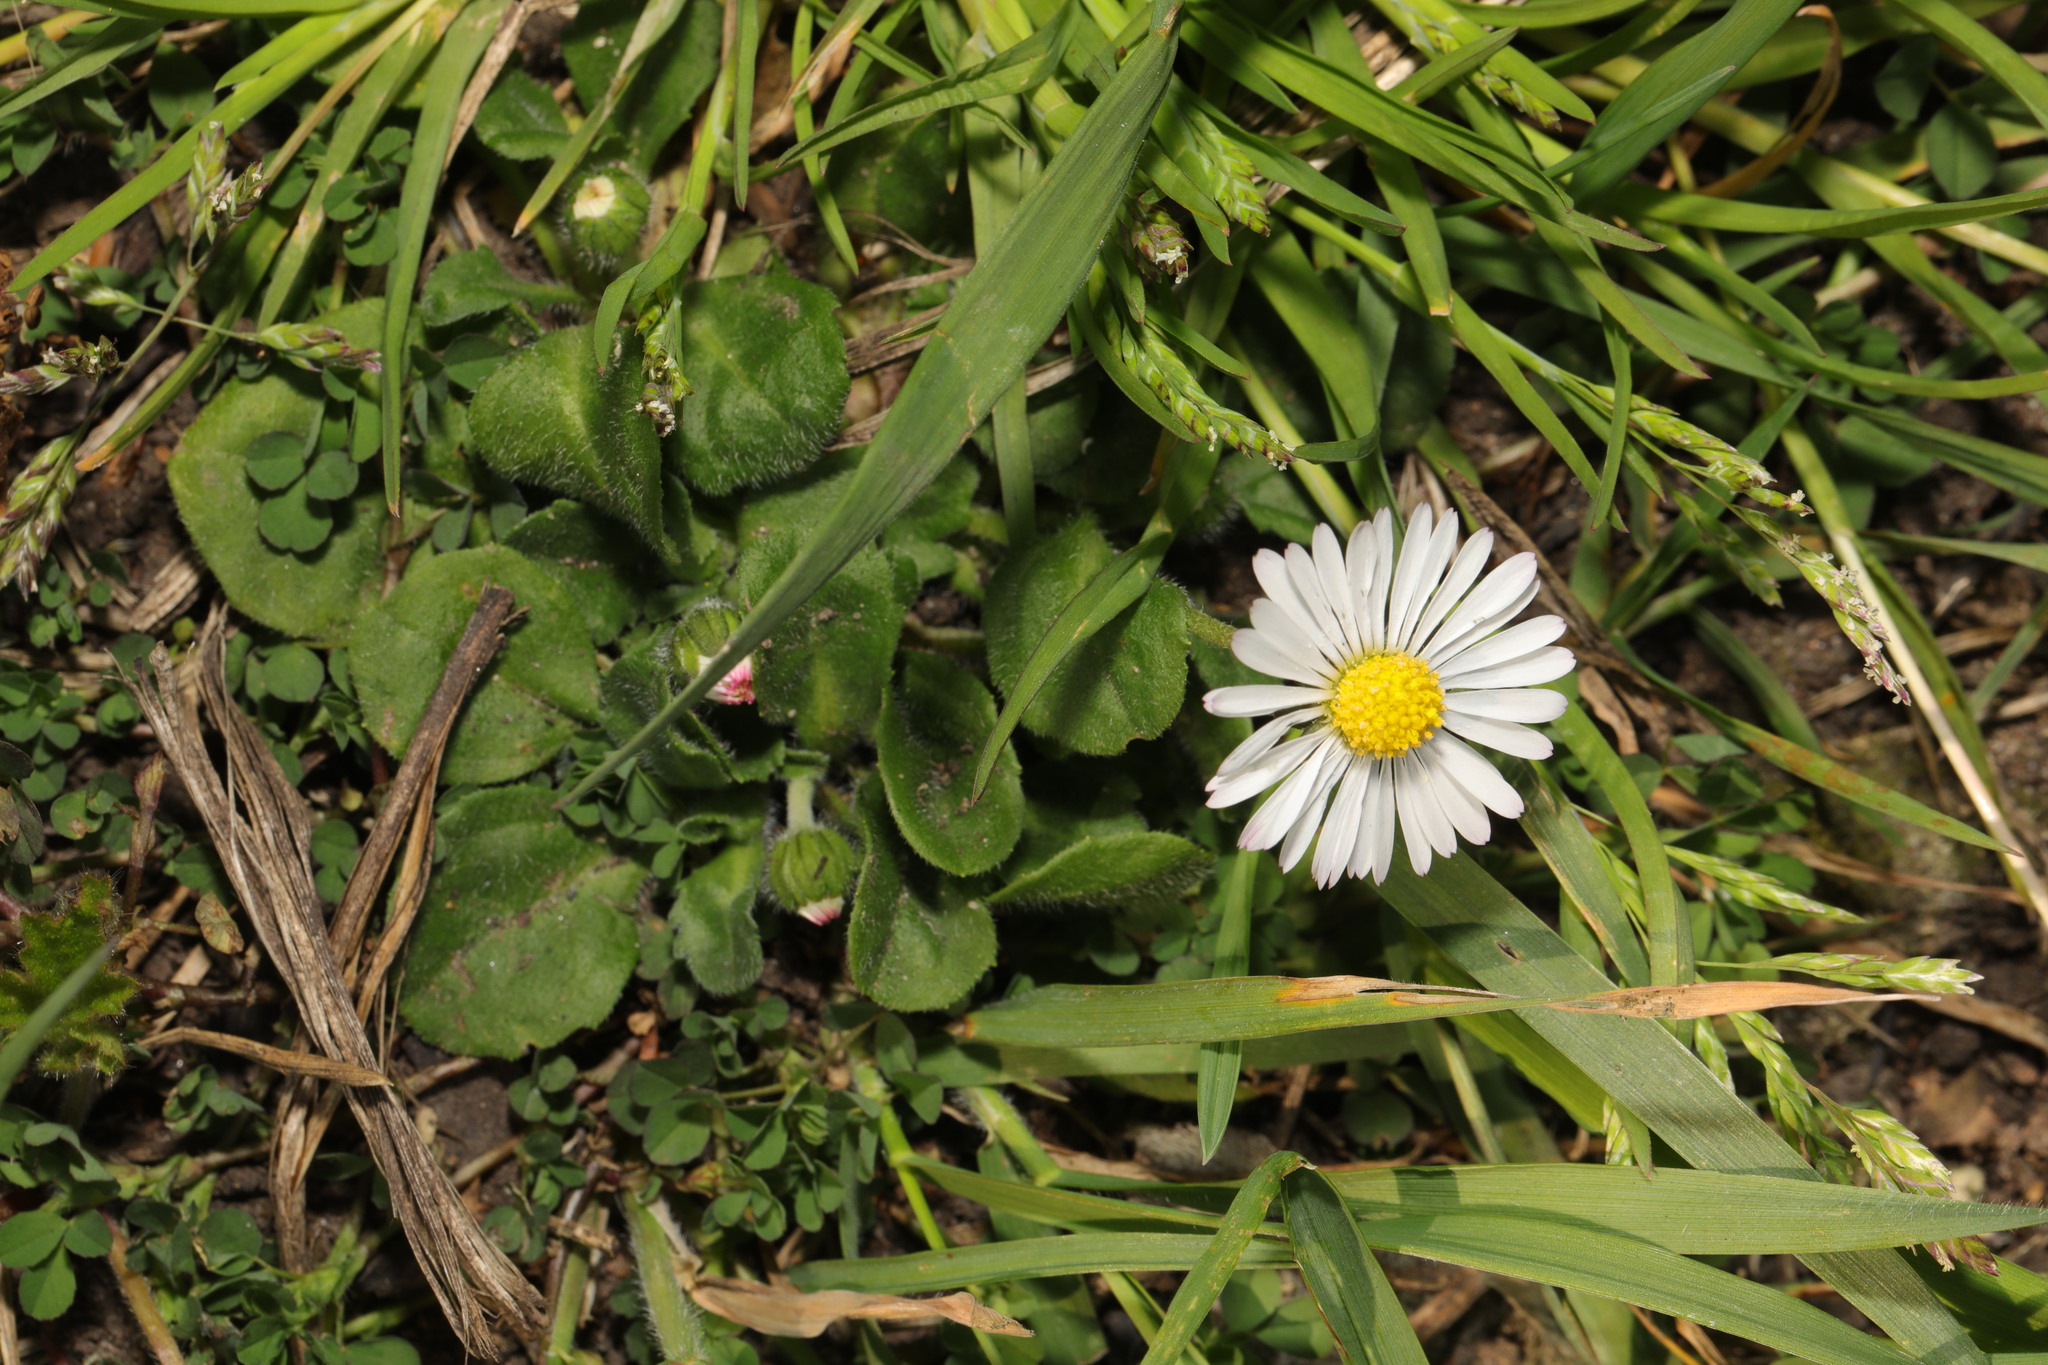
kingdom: Plantae
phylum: Tracheophyta
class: Magnoliopsida
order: Asterales
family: Asteraceae
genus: Bellis
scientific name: Bellis perennis
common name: Lawndaisy
